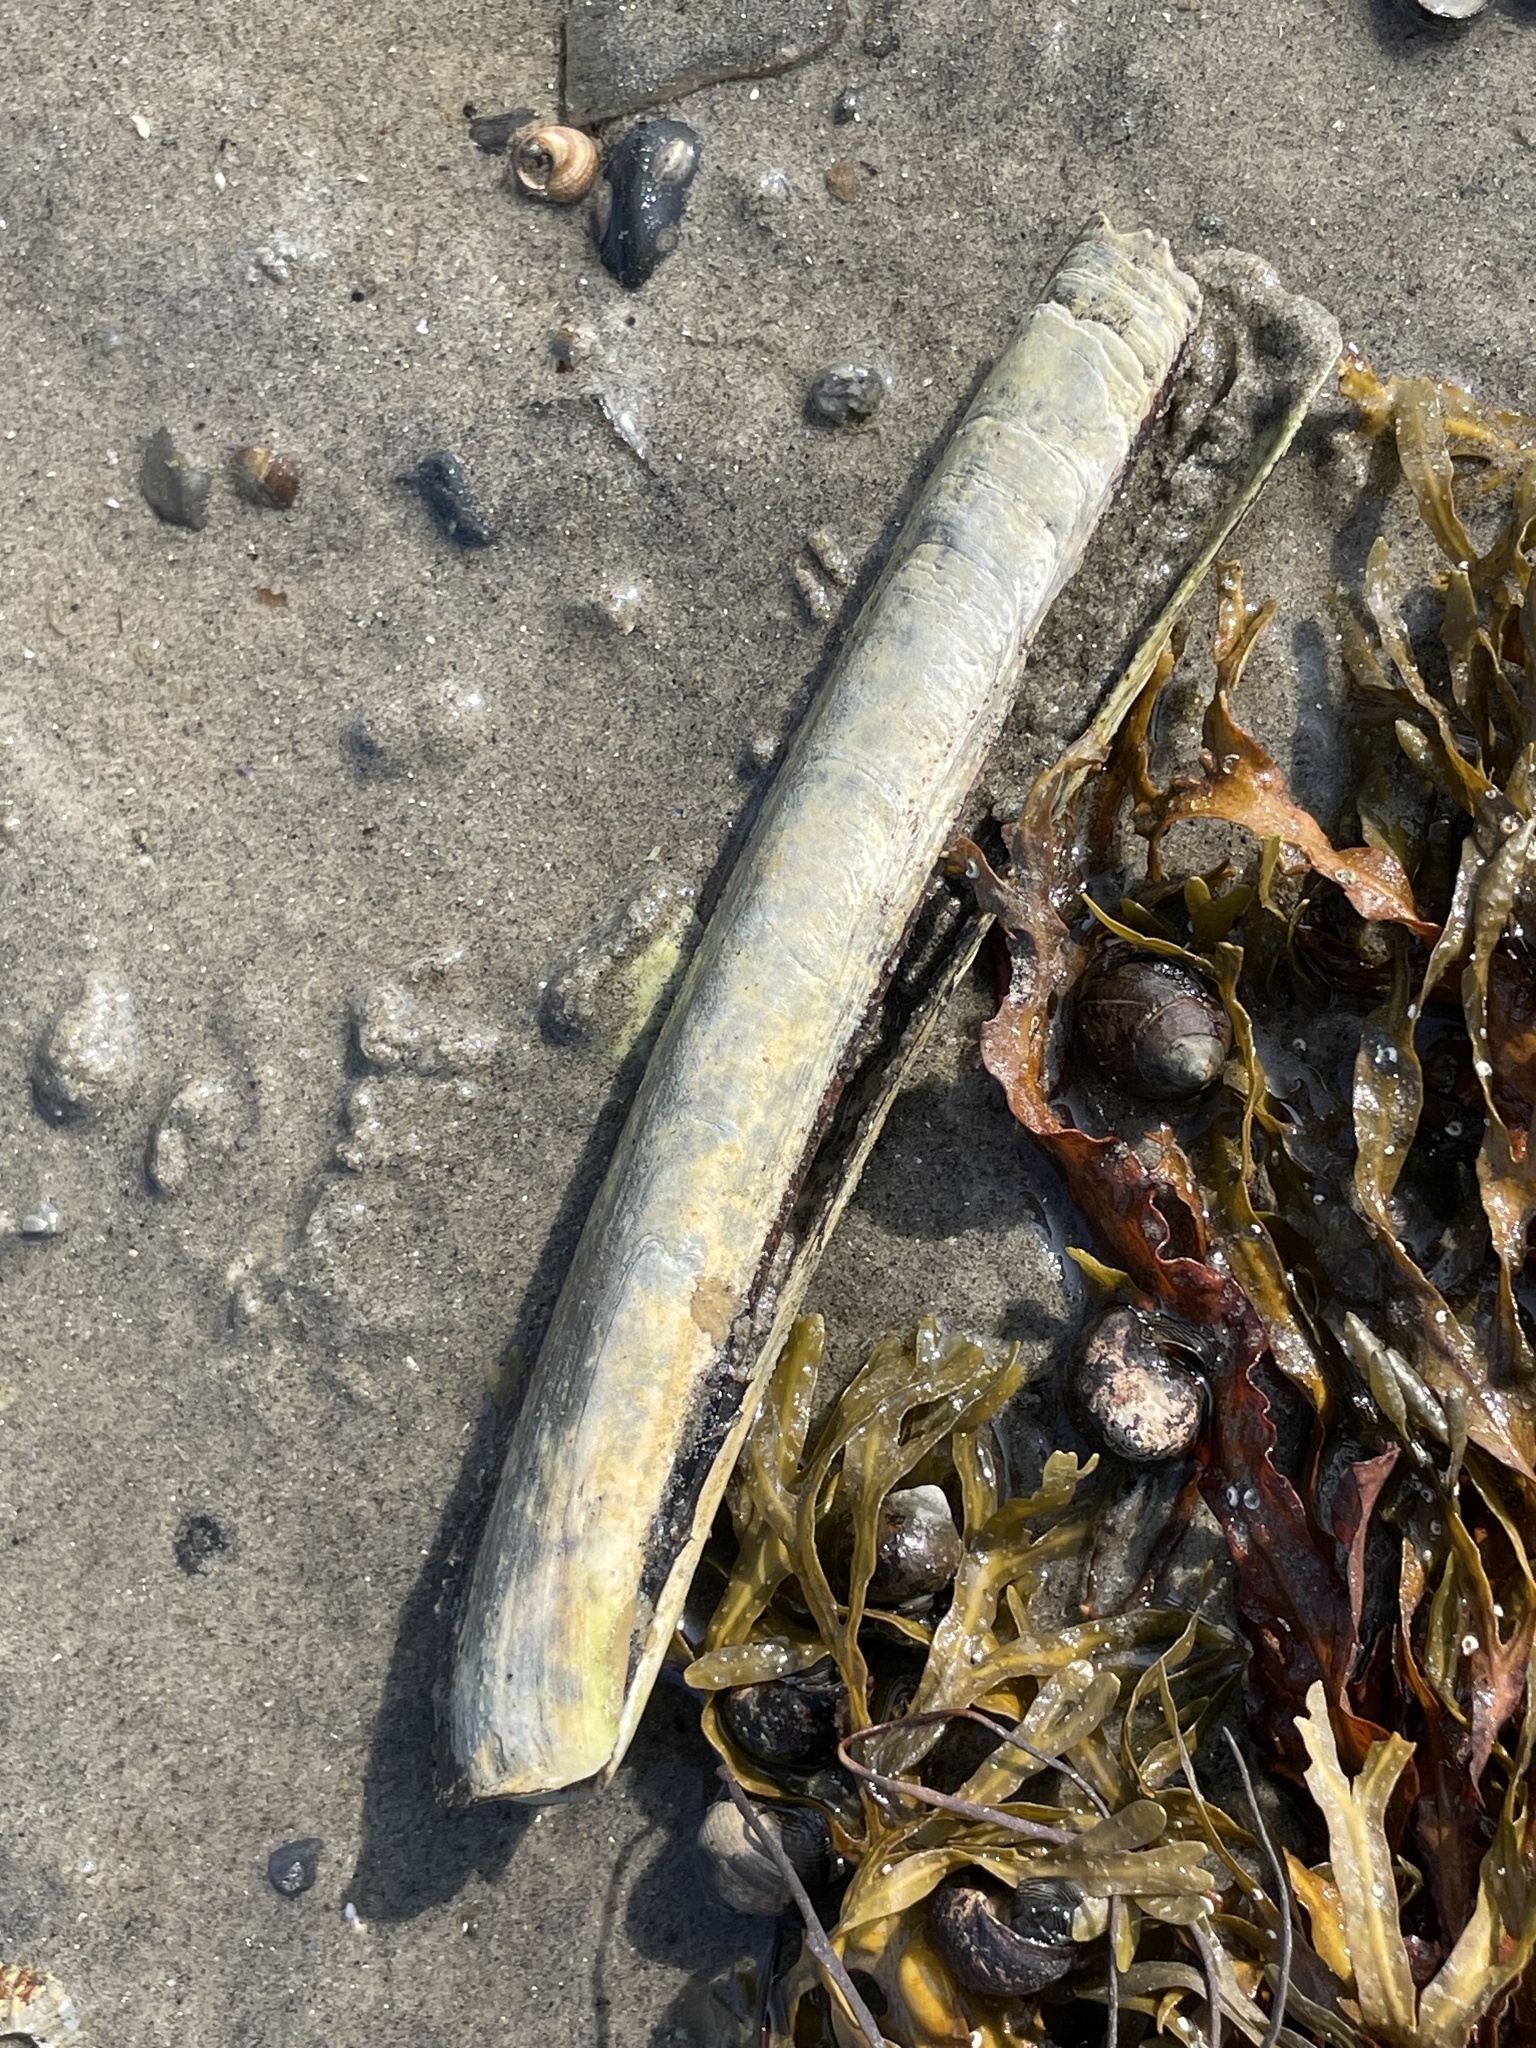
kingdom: Animalia
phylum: Mollusca
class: Bivalvia
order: Adapedonta
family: Pharidae
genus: Ensis
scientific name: Ensis leei
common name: American jack knife clam
